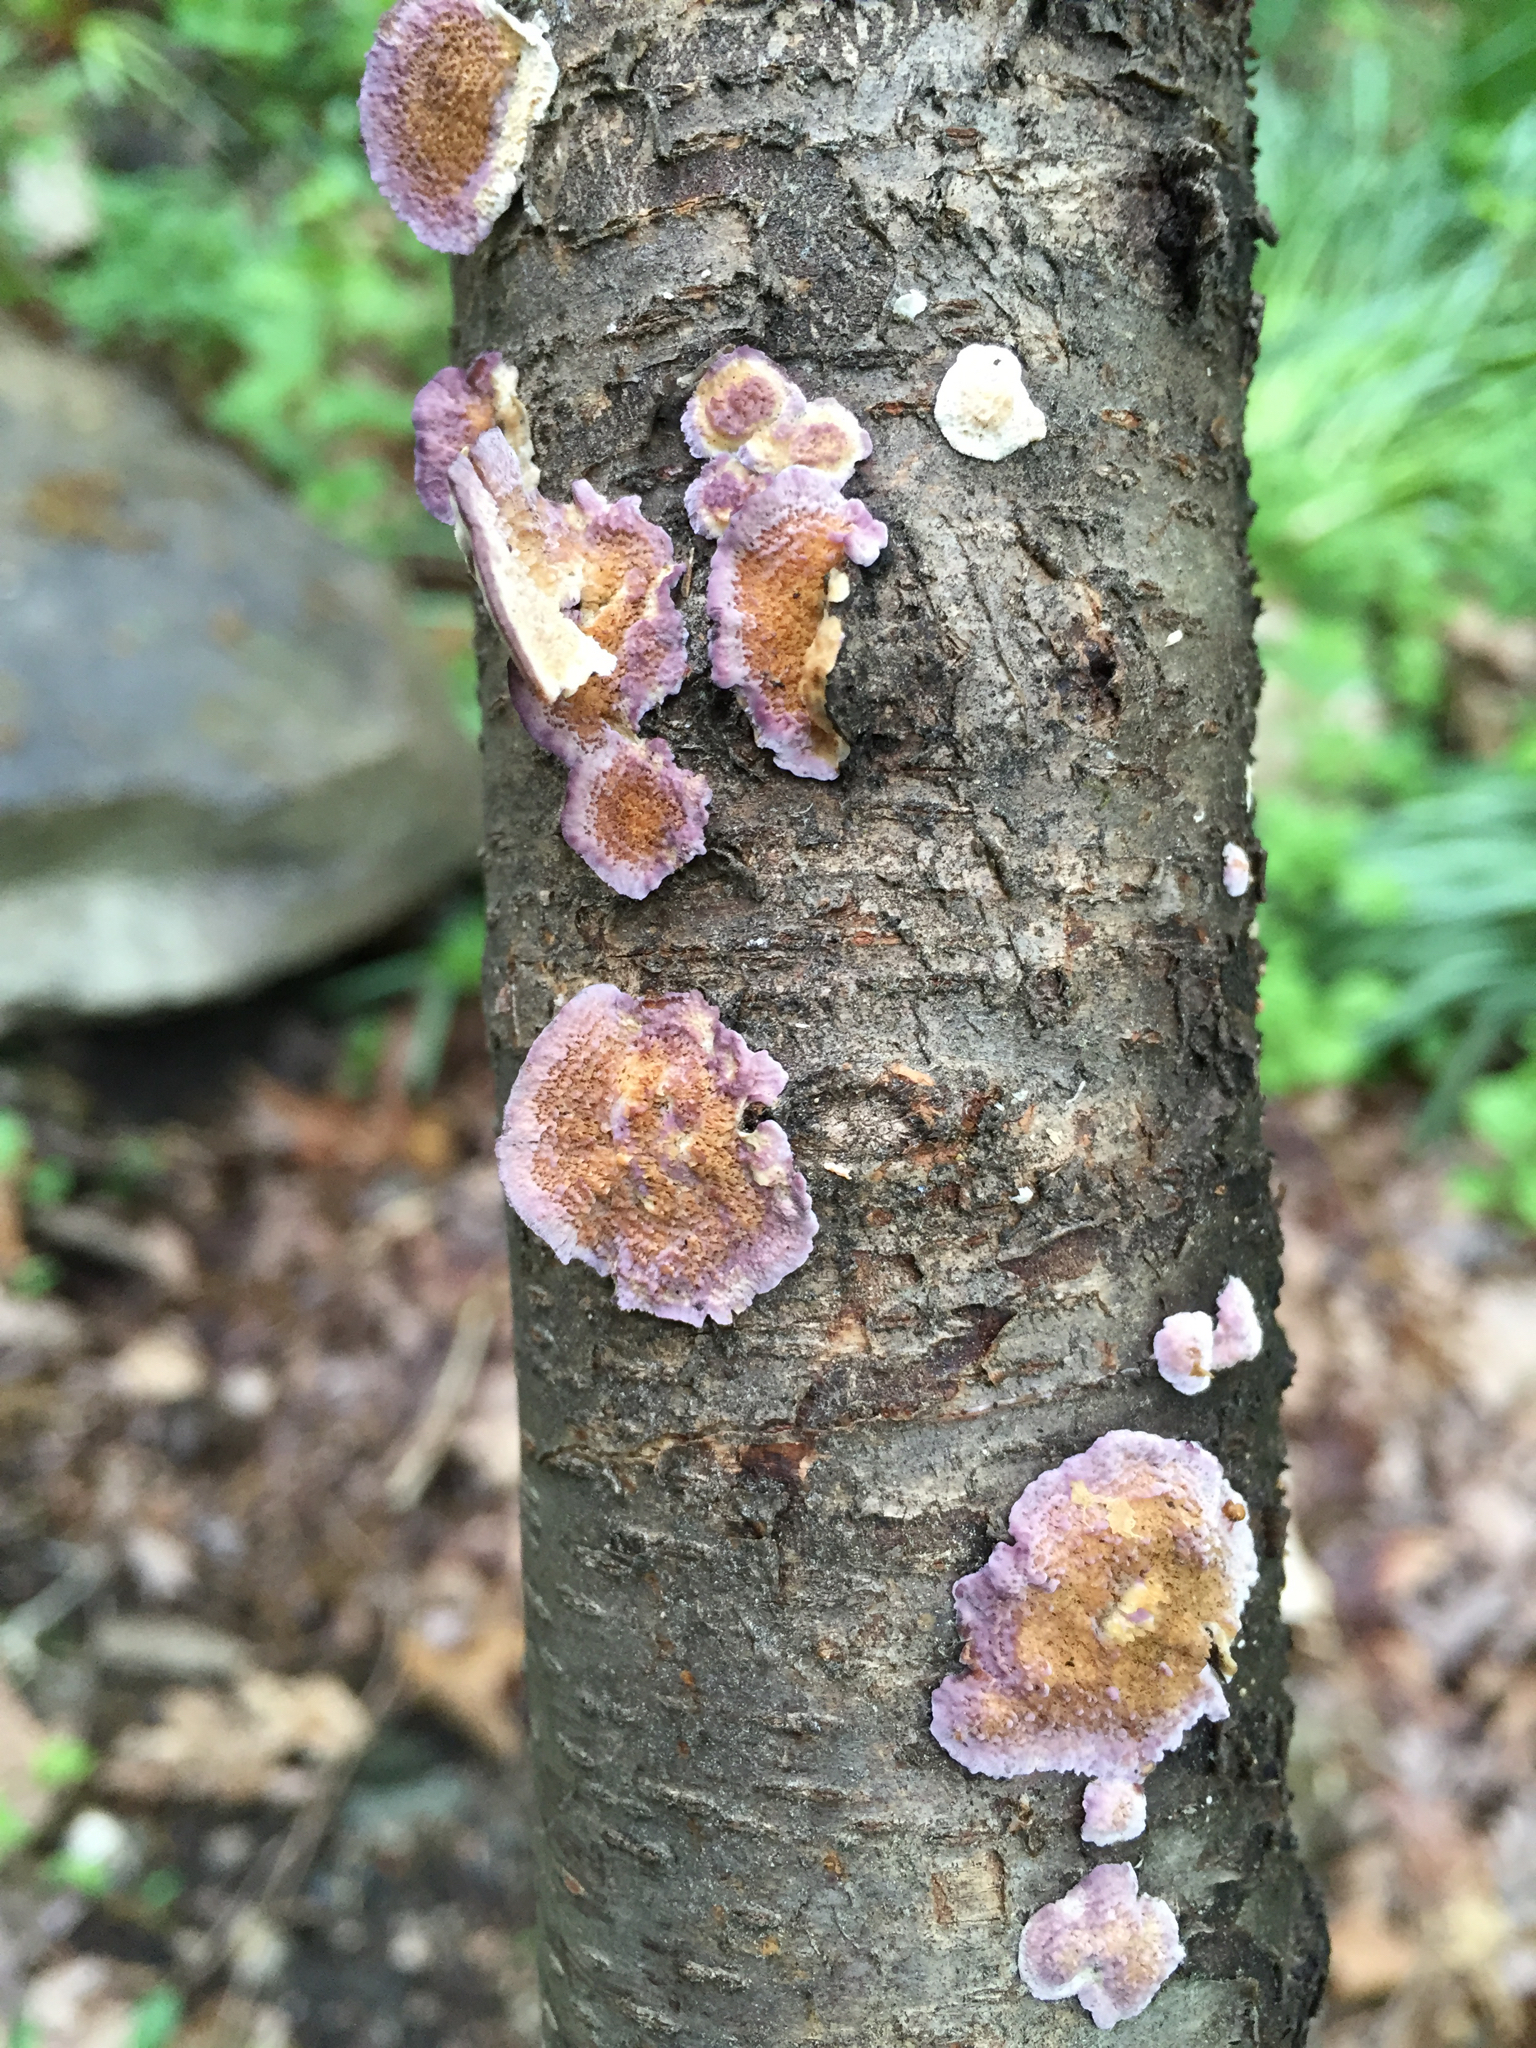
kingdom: Fungi
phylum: Basidiomycota
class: Agaricomycetes
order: Hymenochaetales
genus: Trichaptum
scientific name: Trichaptum biforme
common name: Violet-toothed polypore
